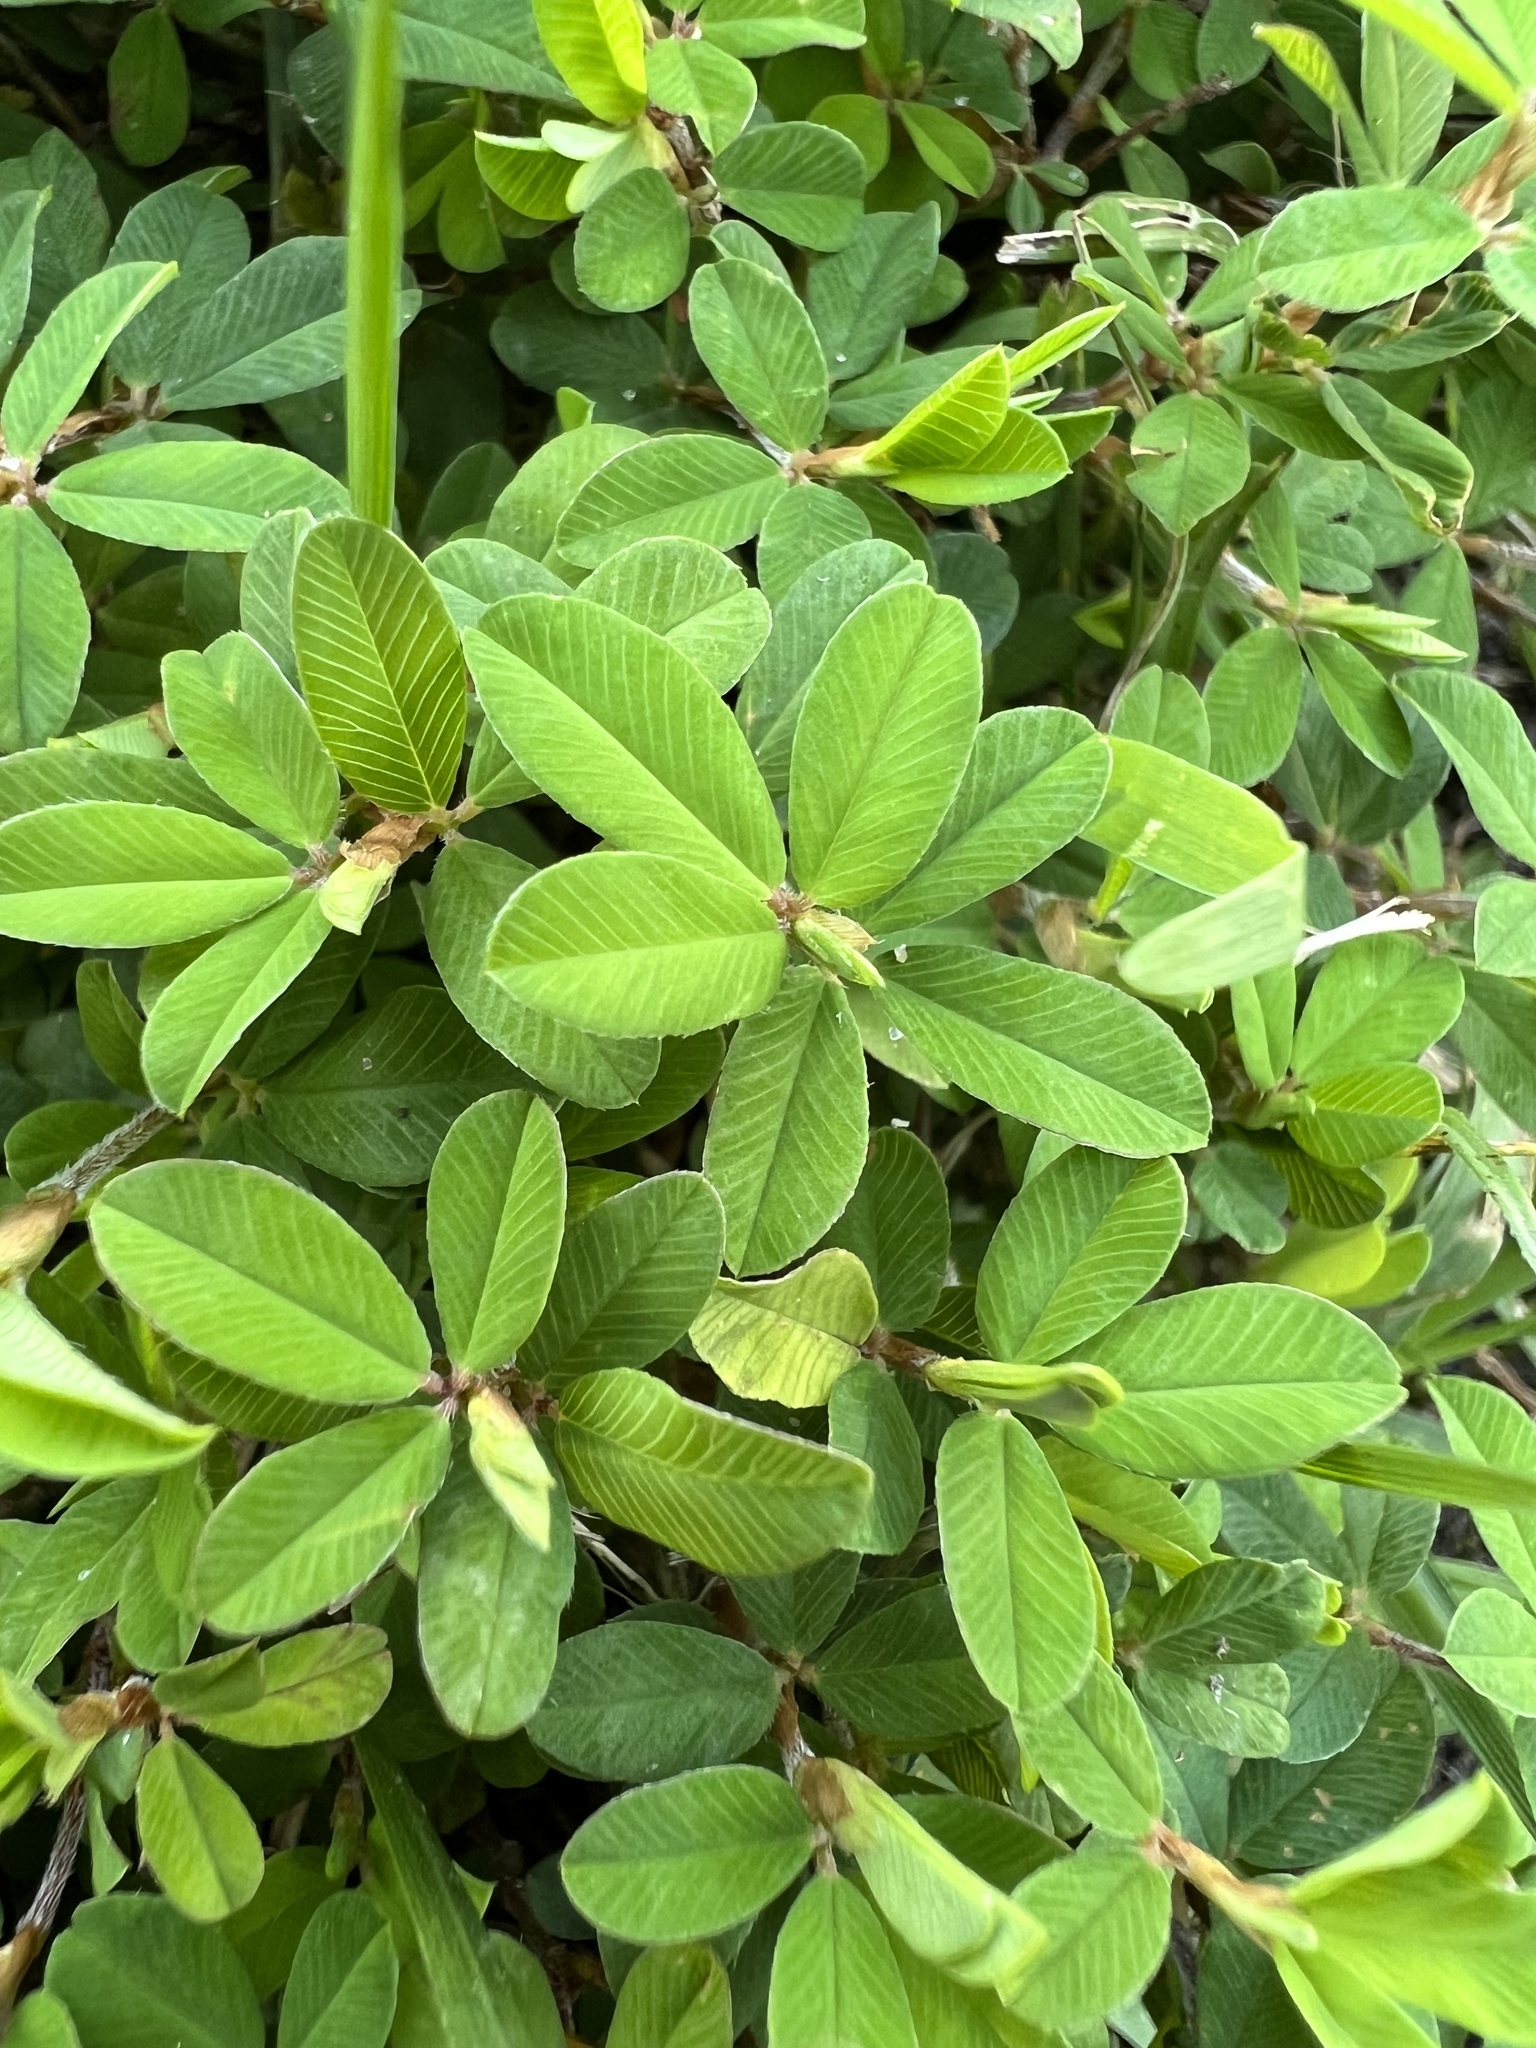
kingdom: Plantae
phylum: Tracheophyta
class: Magnoliopsida
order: Fabales
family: Fabaceae
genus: Kummerowia
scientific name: Kummerowia striata
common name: Japanese clover
